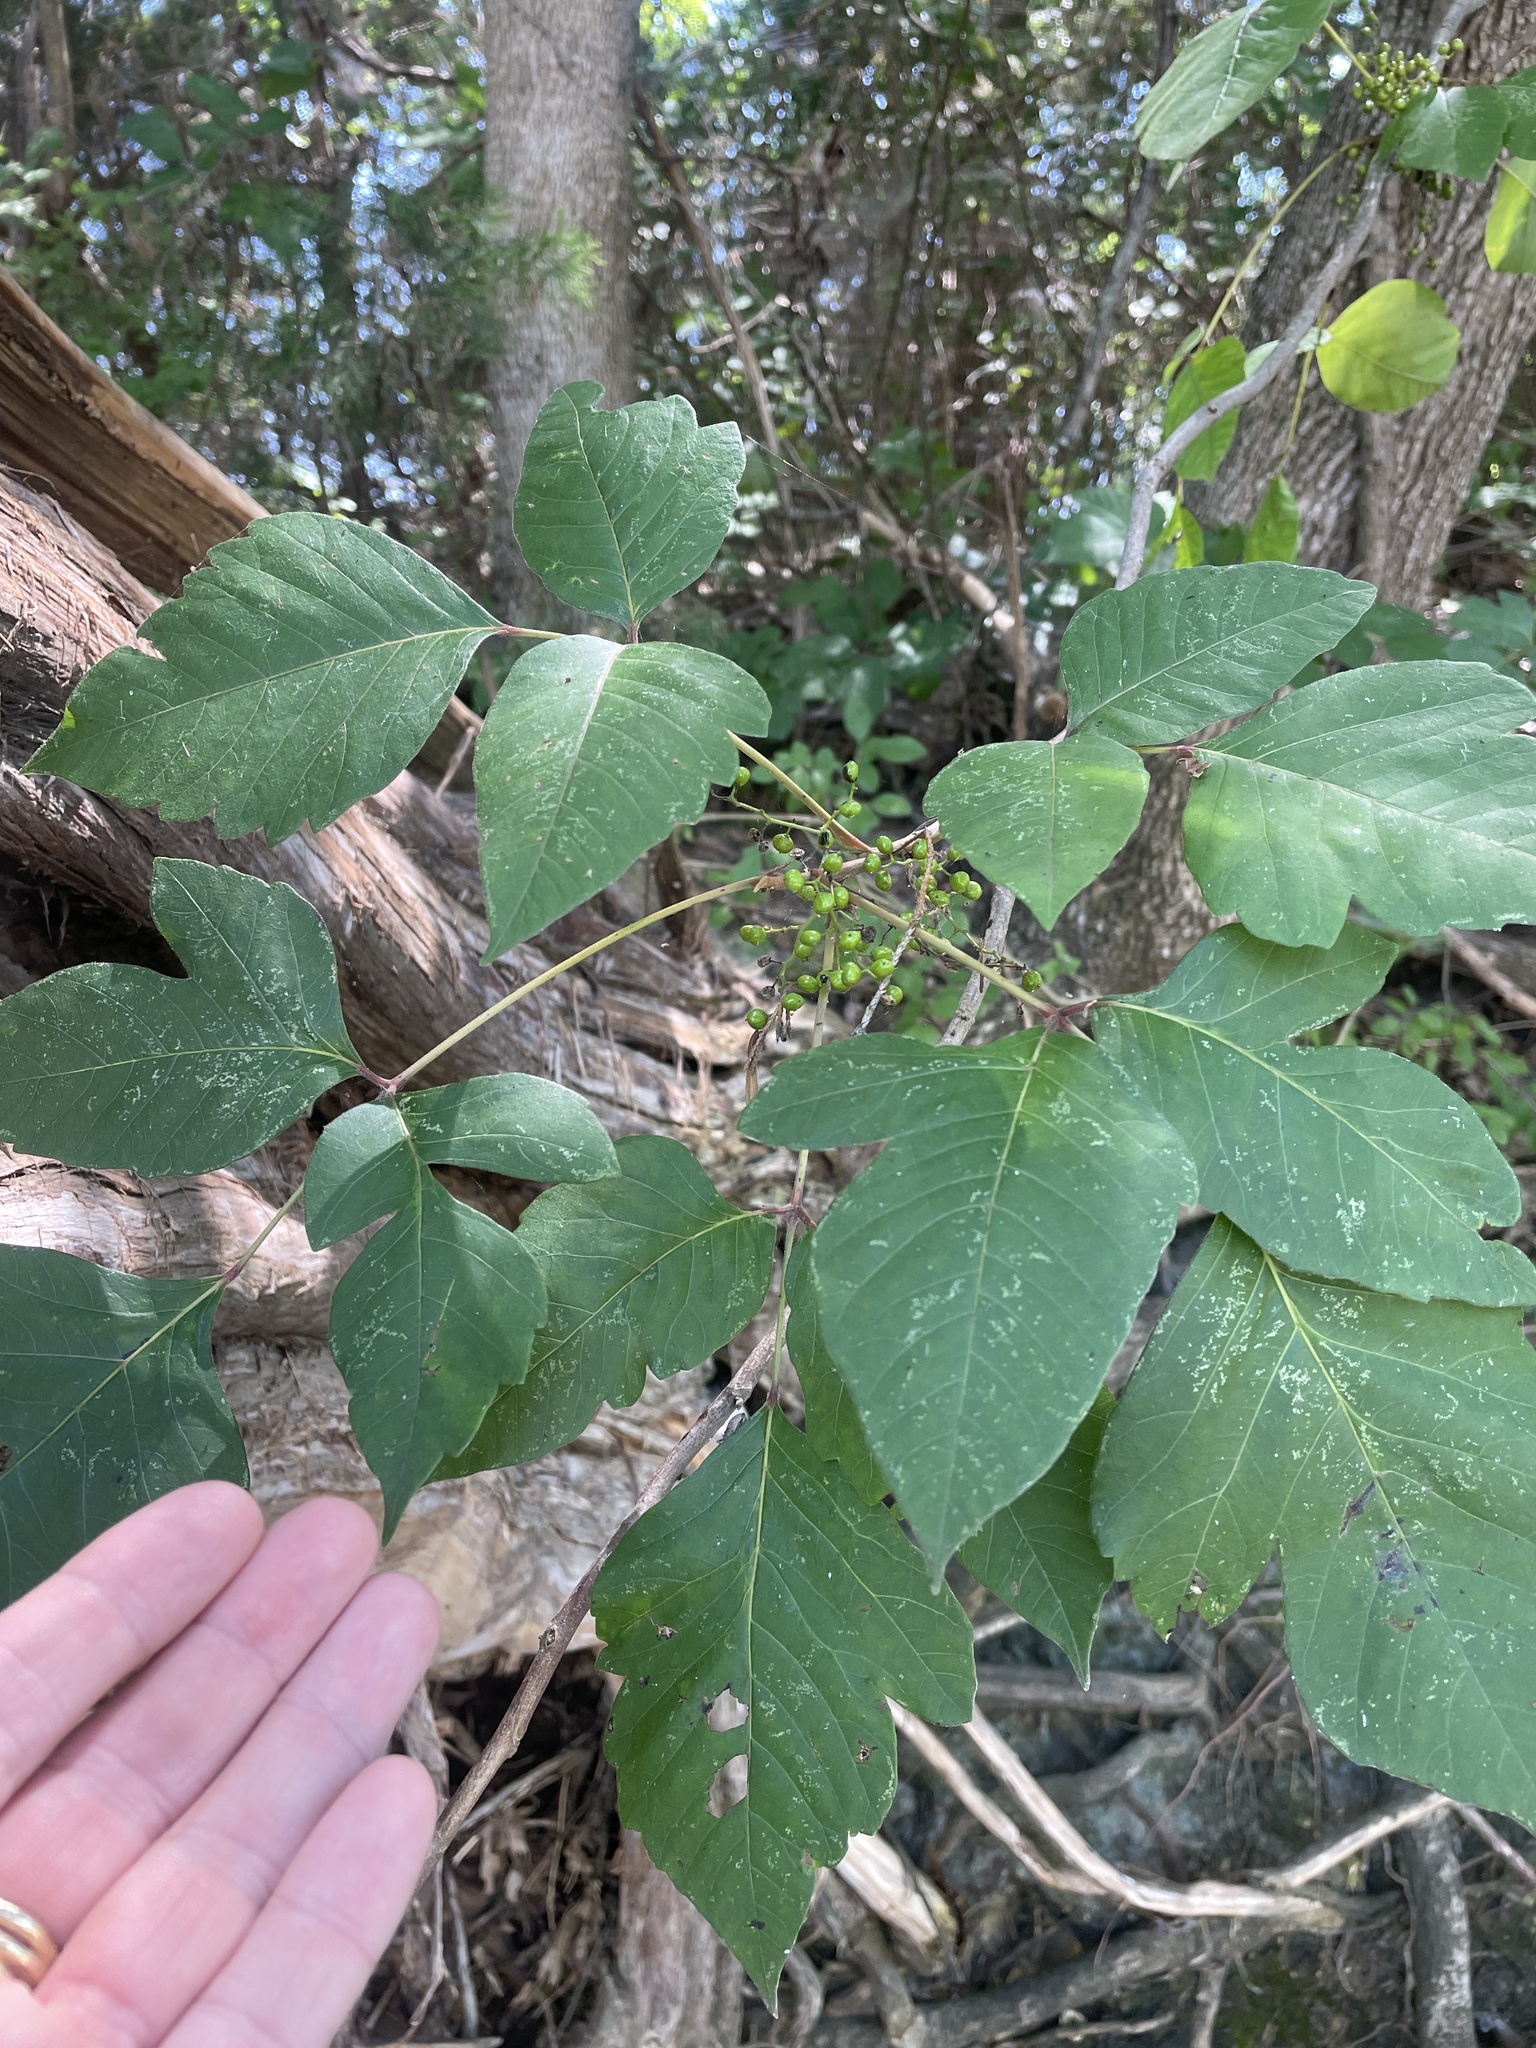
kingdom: Plantae
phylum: Tracheophyta
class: Magnoliopsida
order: Sapindales
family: Anacardiaceae
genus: Toxicodendron
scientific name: Toxicodendron radicans
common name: Poison ivy
